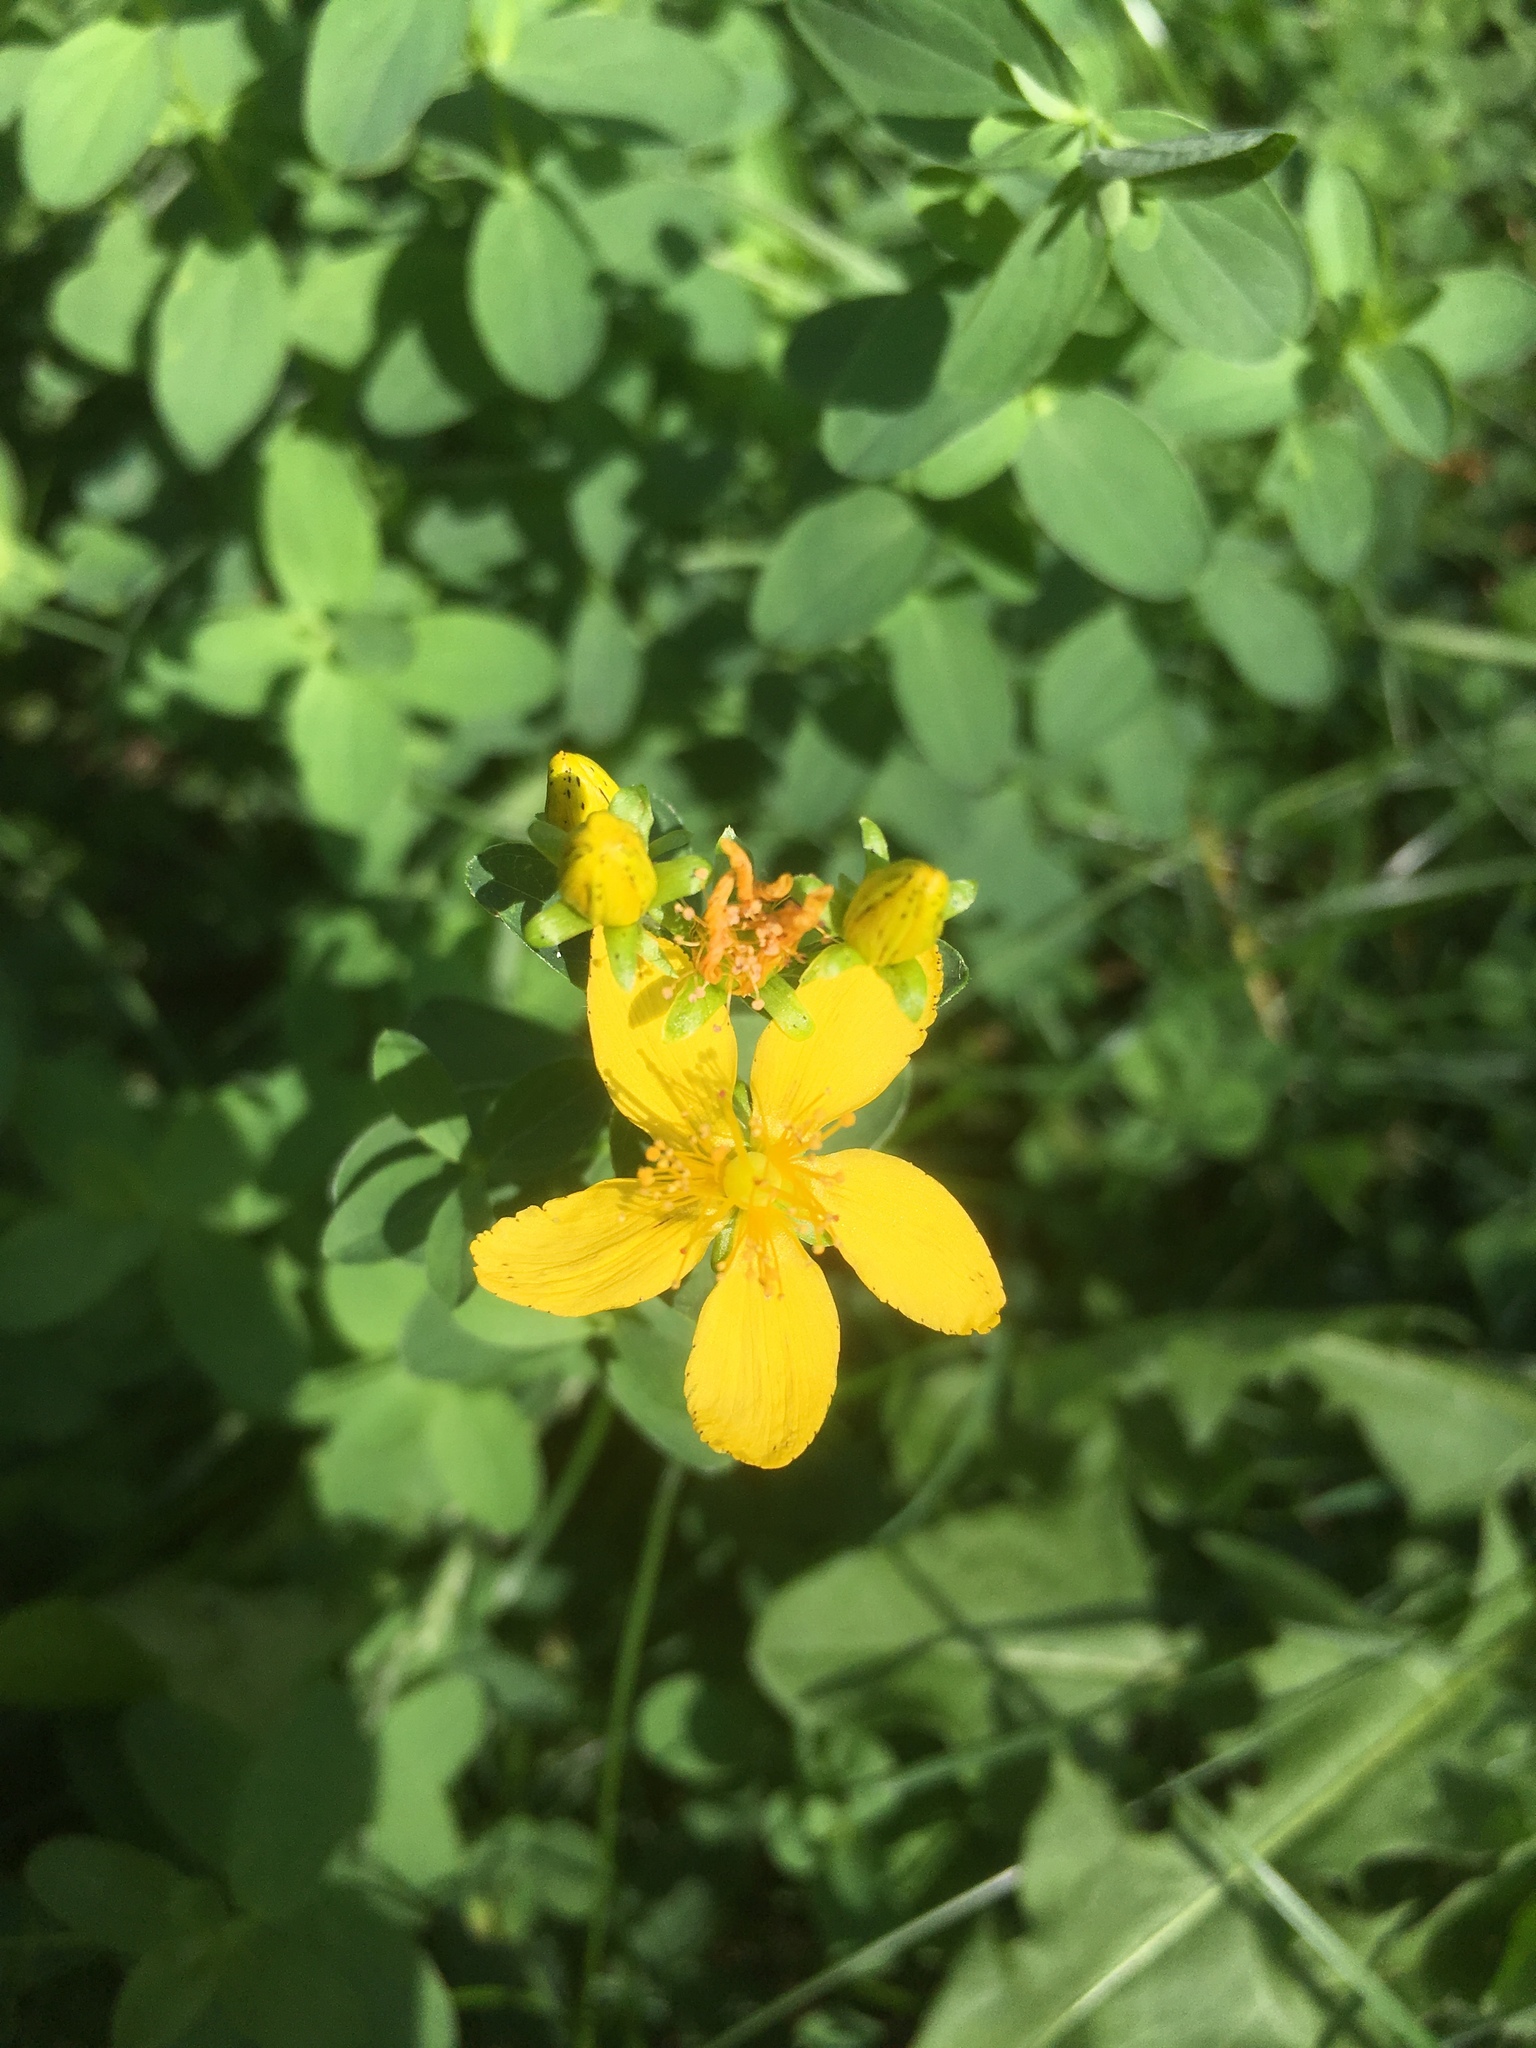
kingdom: Plantae
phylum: Tracheophyta
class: Magnoliopsida
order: Malpighiales
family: Hypericaceae
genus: Hypericum
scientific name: Hypericum perforatum
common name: Common st. johnswort
